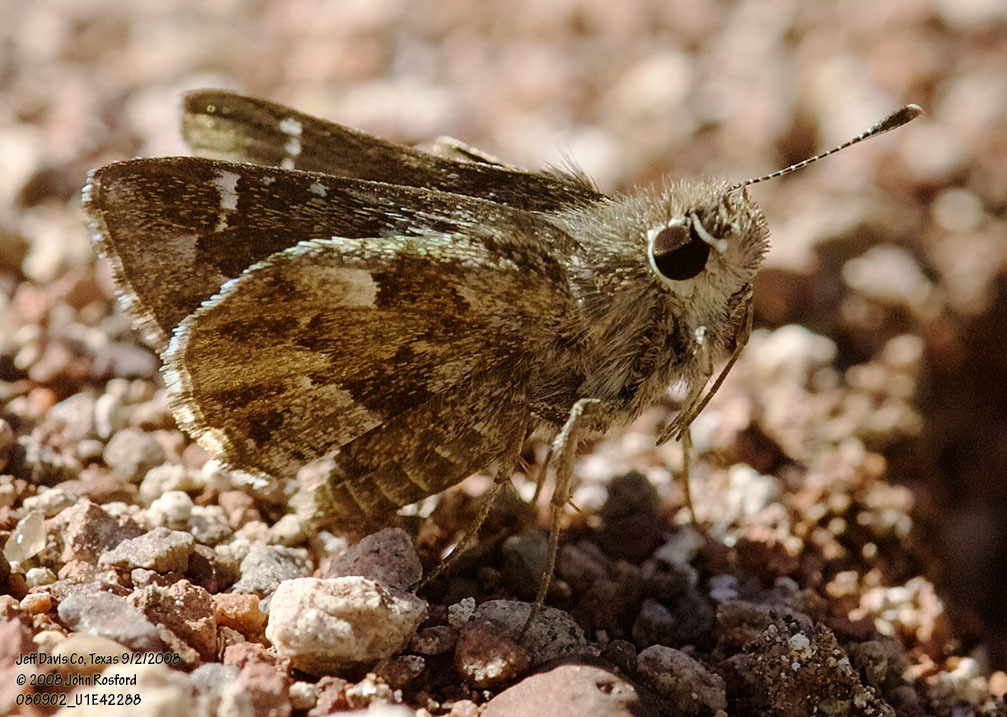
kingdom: Animalia
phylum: Arthropoda
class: Insecta
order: Lepidoptera
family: Hesperiidae
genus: Mastor
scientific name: Mastor nysa
